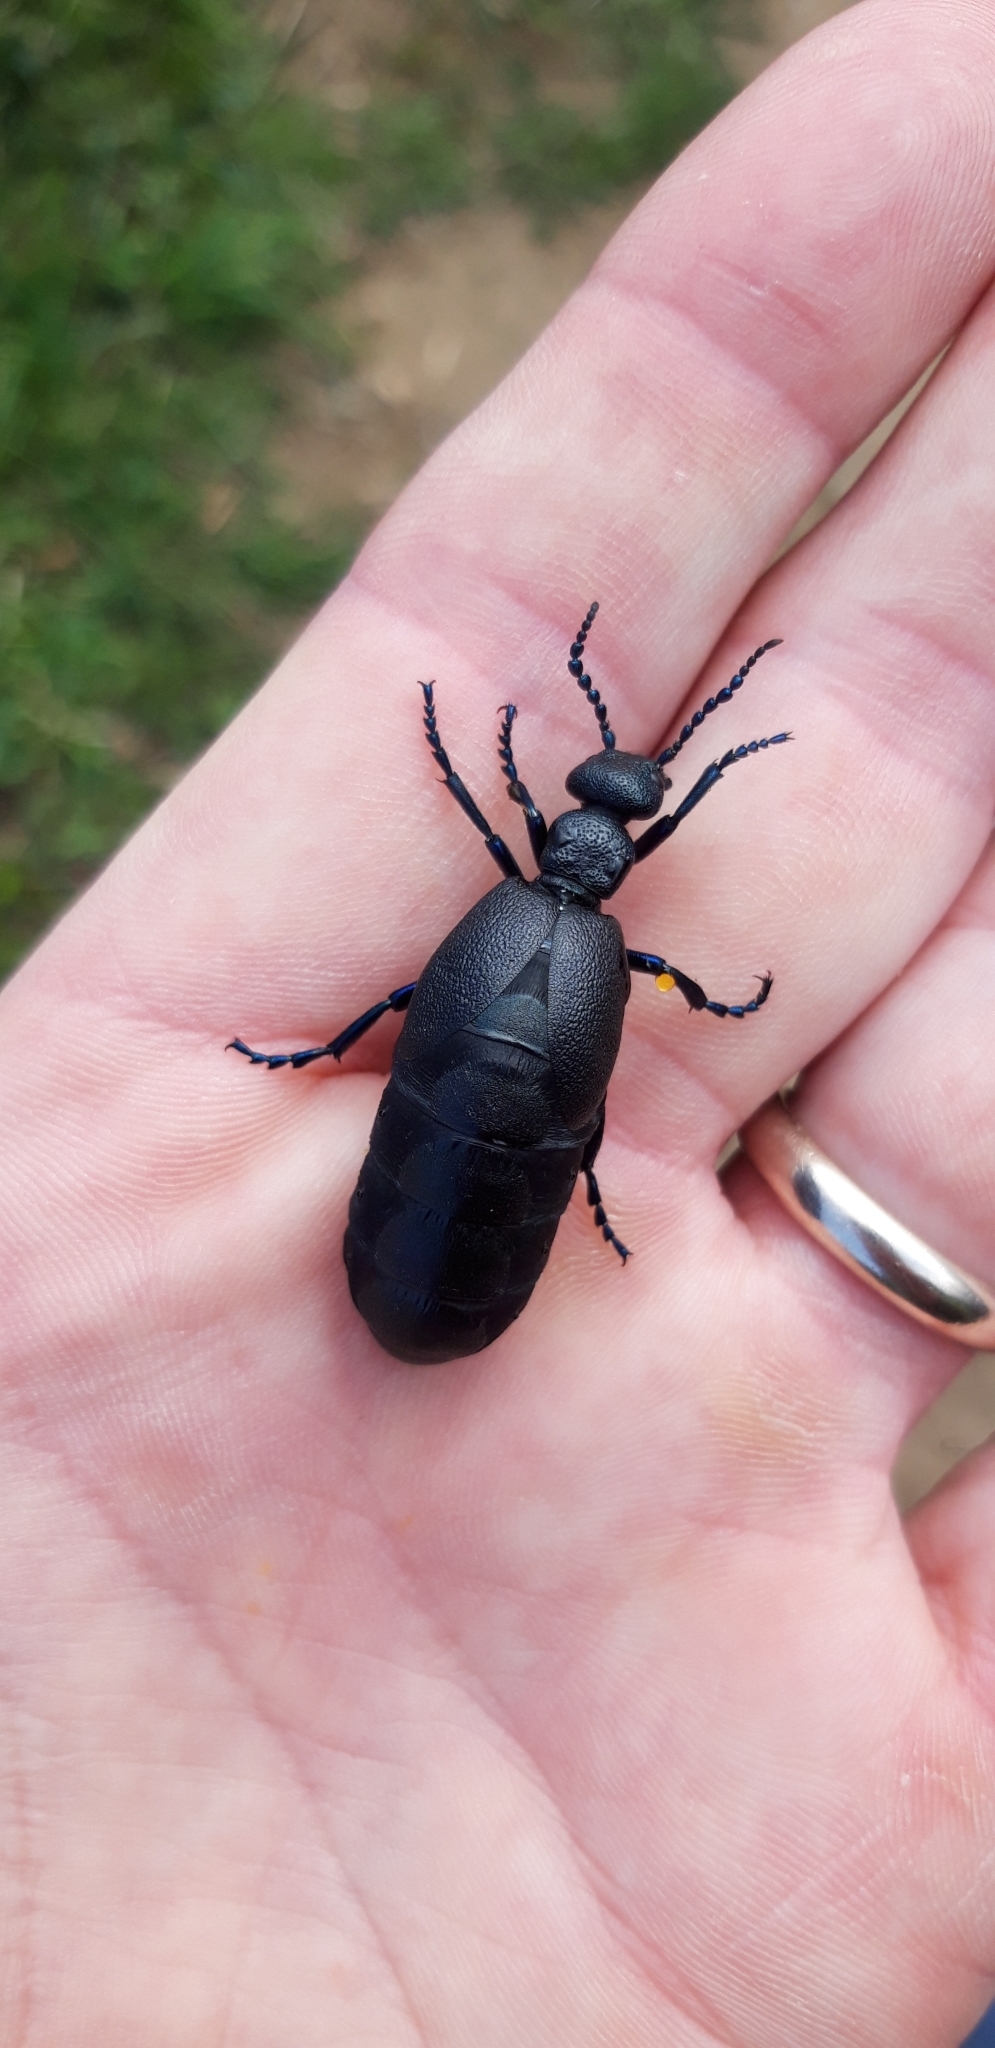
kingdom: Animalia
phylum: Arthropoda
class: Insecta
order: Coleoptera
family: Meloidae
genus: Meloe
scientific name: Meloe proscarabaeus
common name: Black oil-beetle
